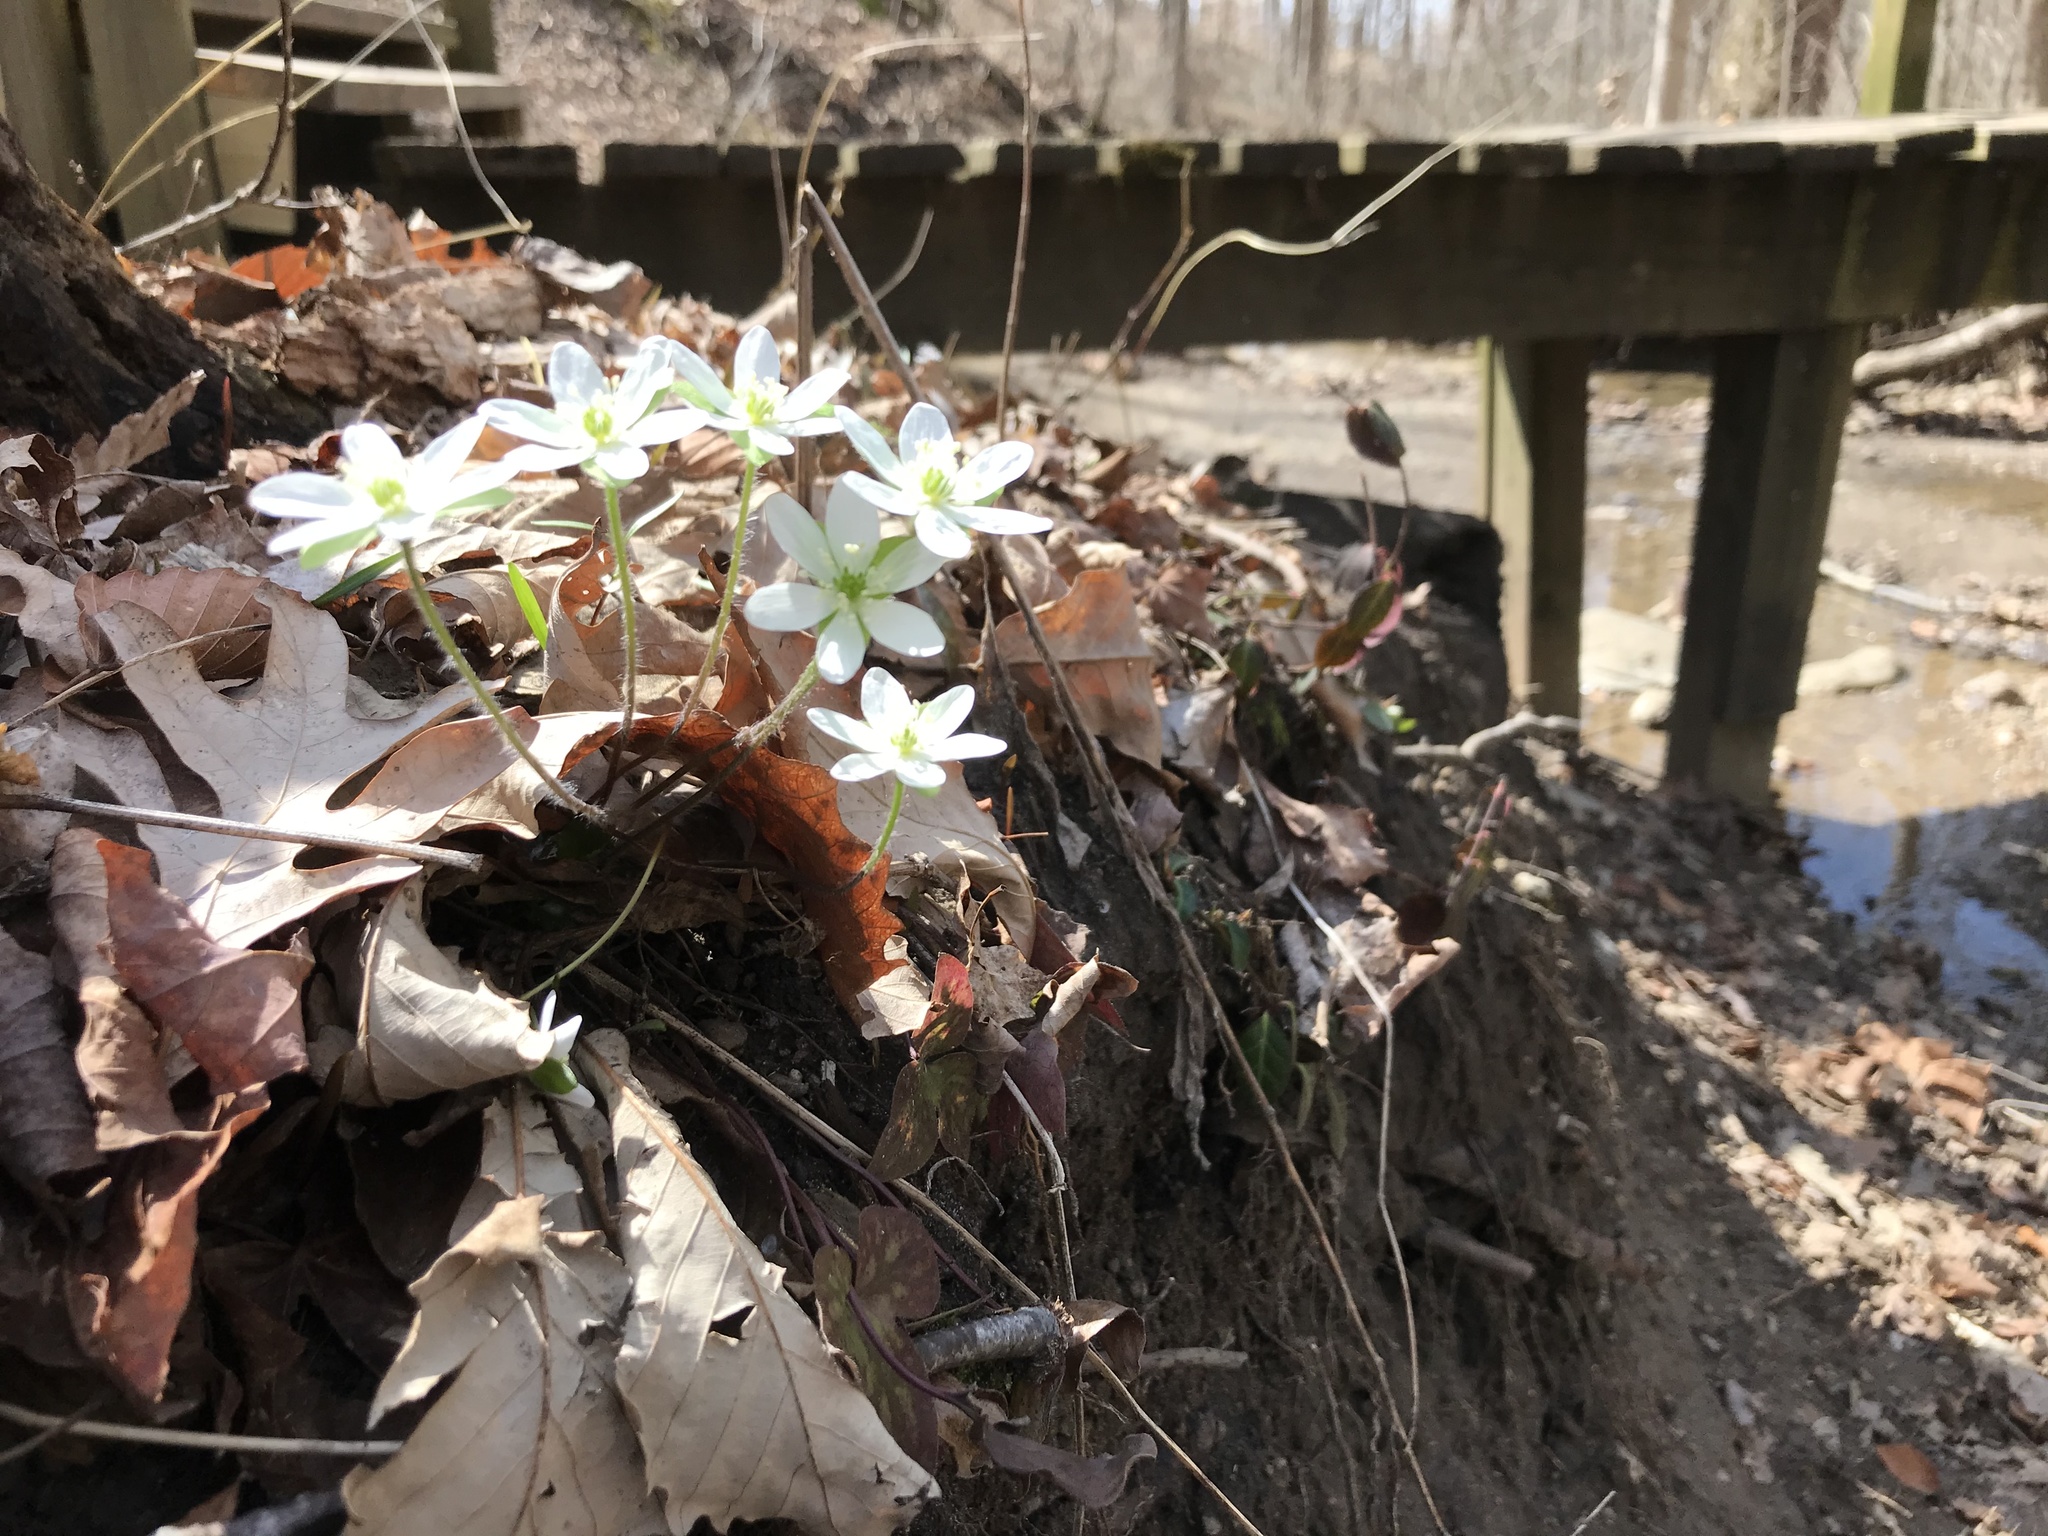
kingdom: Plantae
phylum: Tracheophyta
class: Magnoliopsida
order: Ranunculales
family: Ranunculaceae
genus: Hepatica
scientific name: Hepatica acutiloba
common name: Sharp-lobed hepatica
